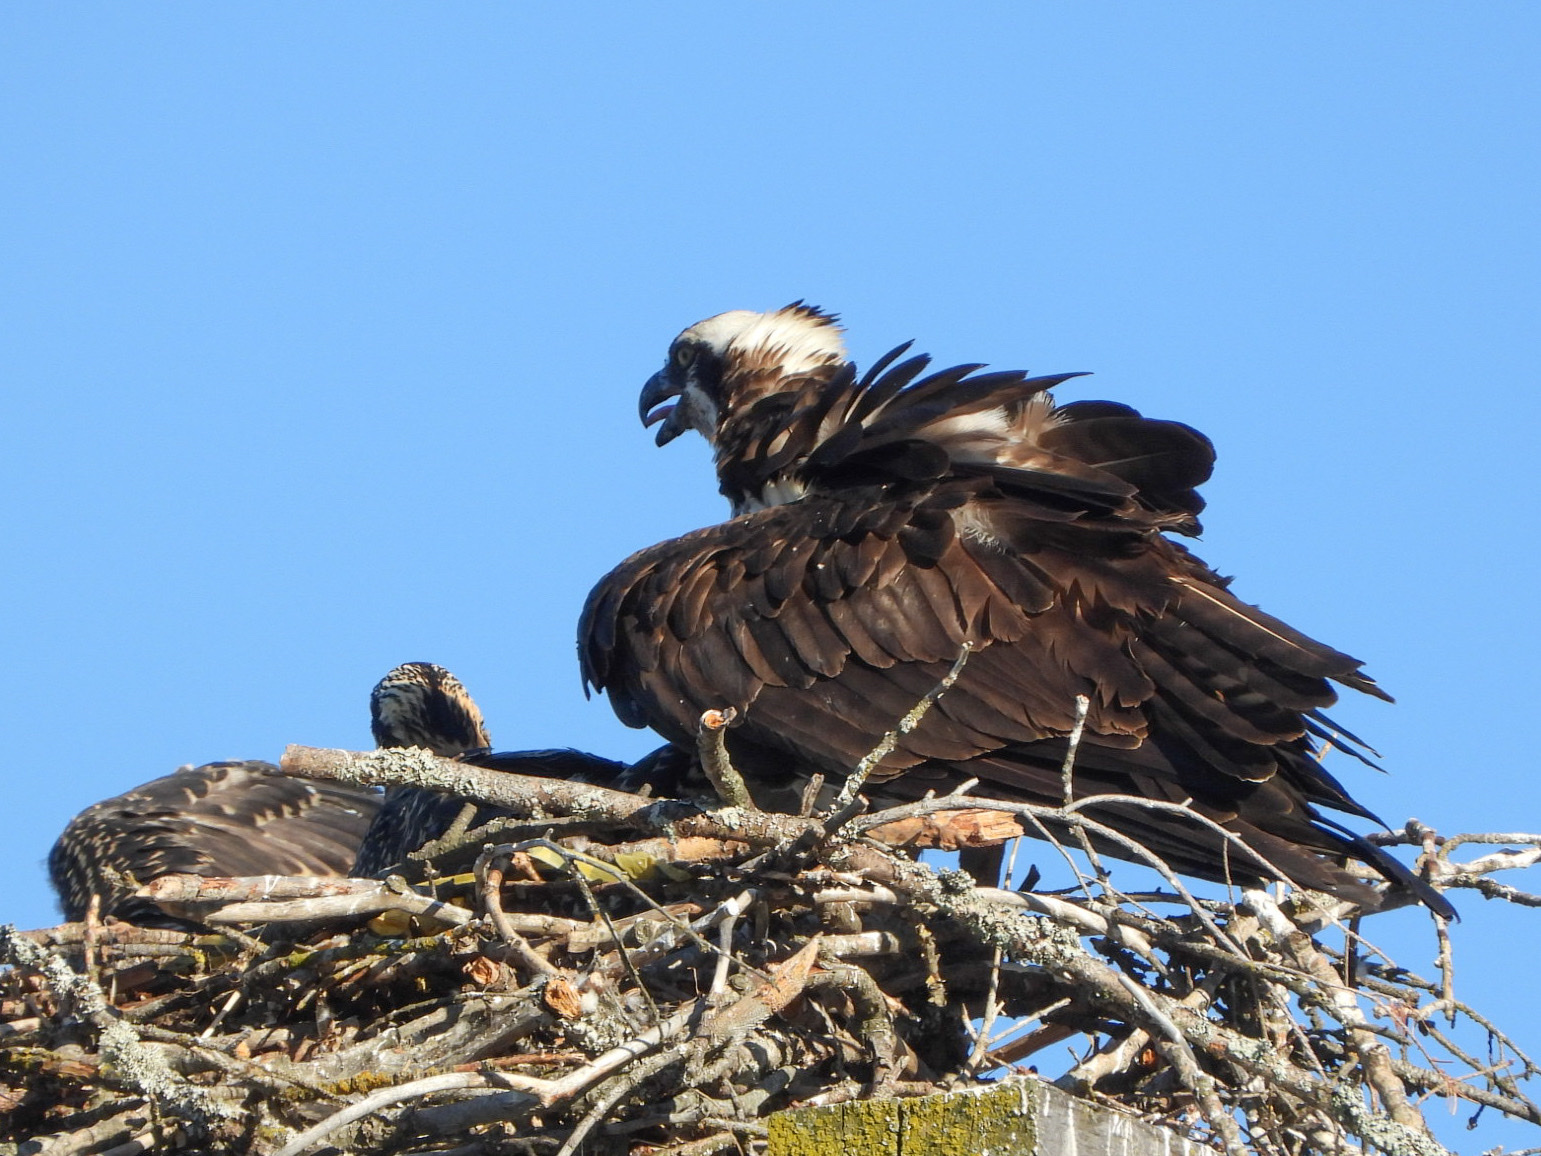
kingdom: Animalia
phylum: Chordata
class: Aves
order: Accipitriformes
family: Pandionidae
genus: Pandion
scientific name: Pandion haliaetus
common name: Osprey
